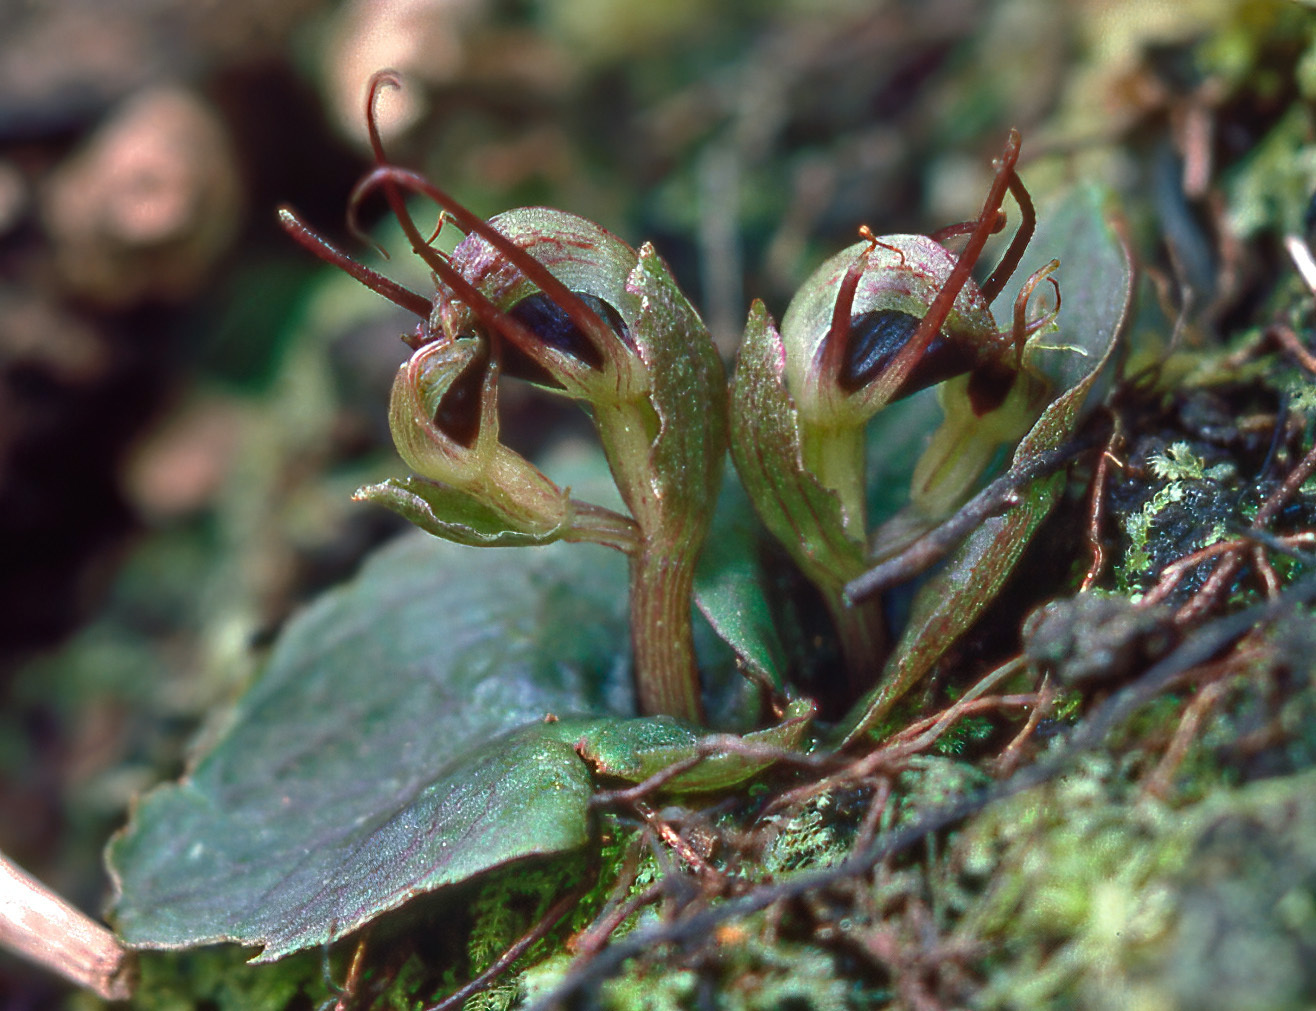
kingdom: Plantae
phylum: Tracheophyta
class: Liliopsida
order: Asparagales
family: Orchidaceae
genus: Corybas
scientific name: Corybas oblongus
